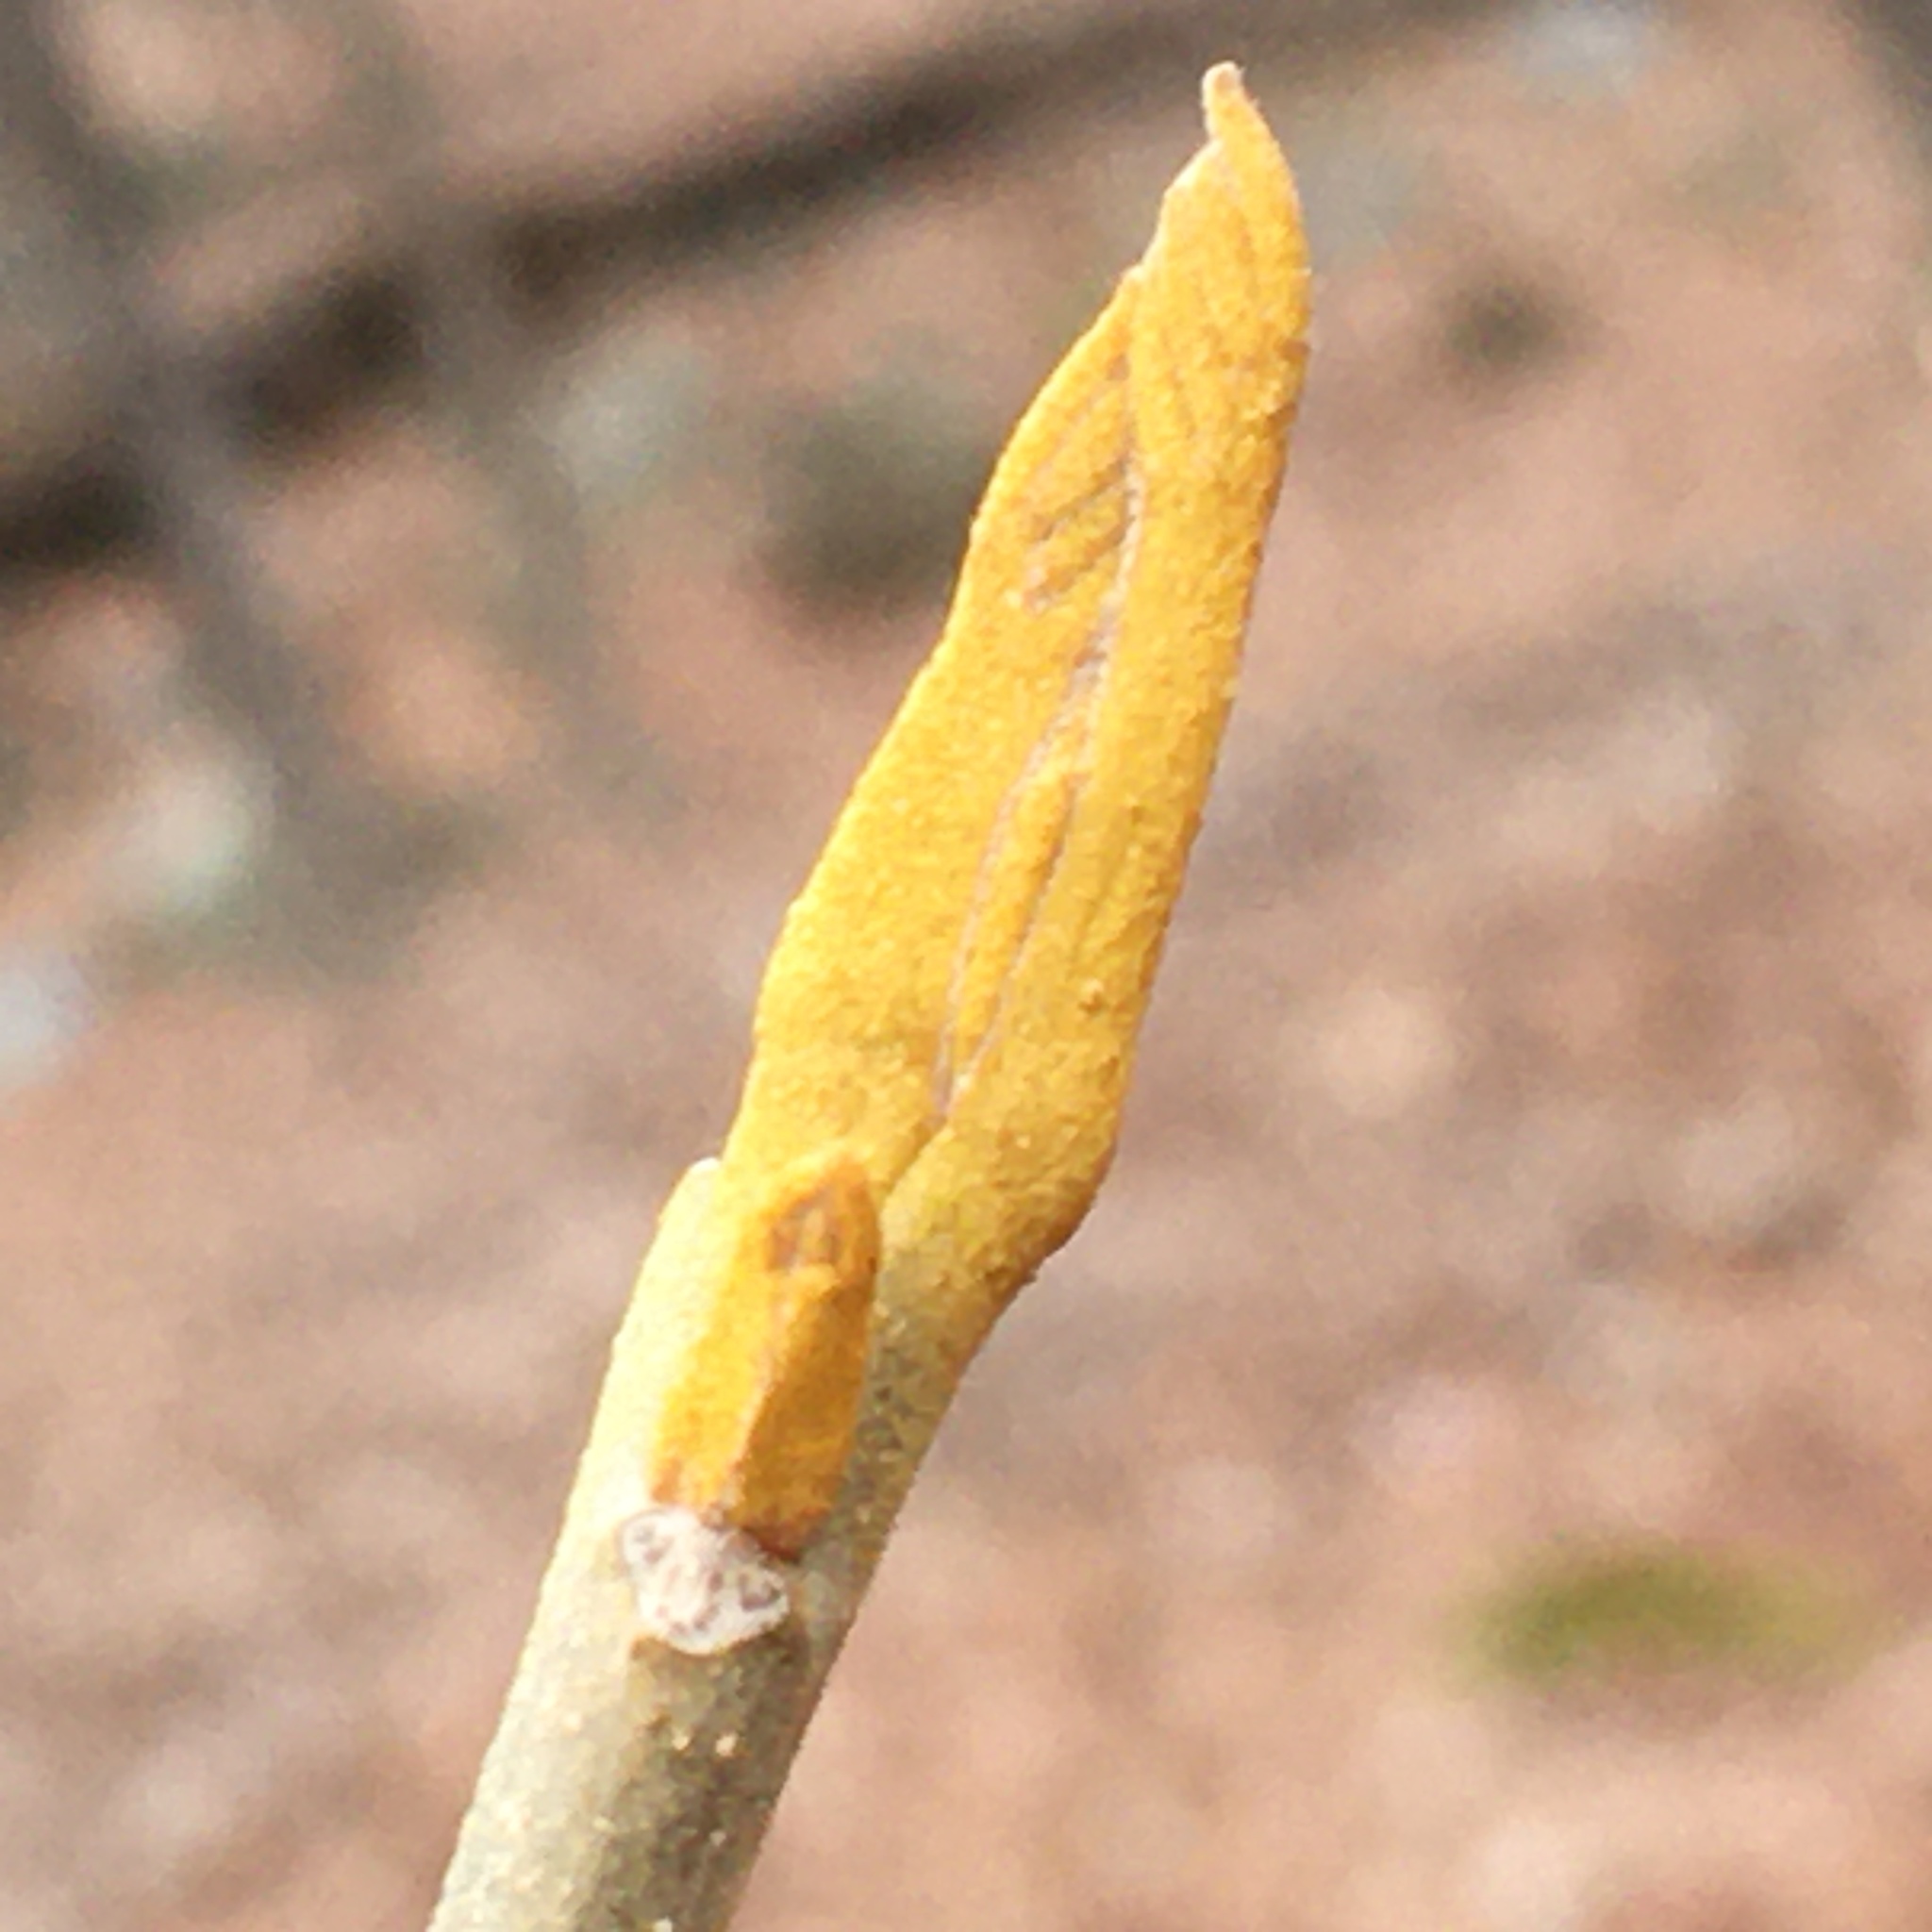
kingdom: Plantae
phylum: Tracheophyta
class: Magnoliopsida
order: Fagales
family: Juglandaceae
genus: Carya
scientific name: Carya cordiformis
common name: Bitternut hickory
